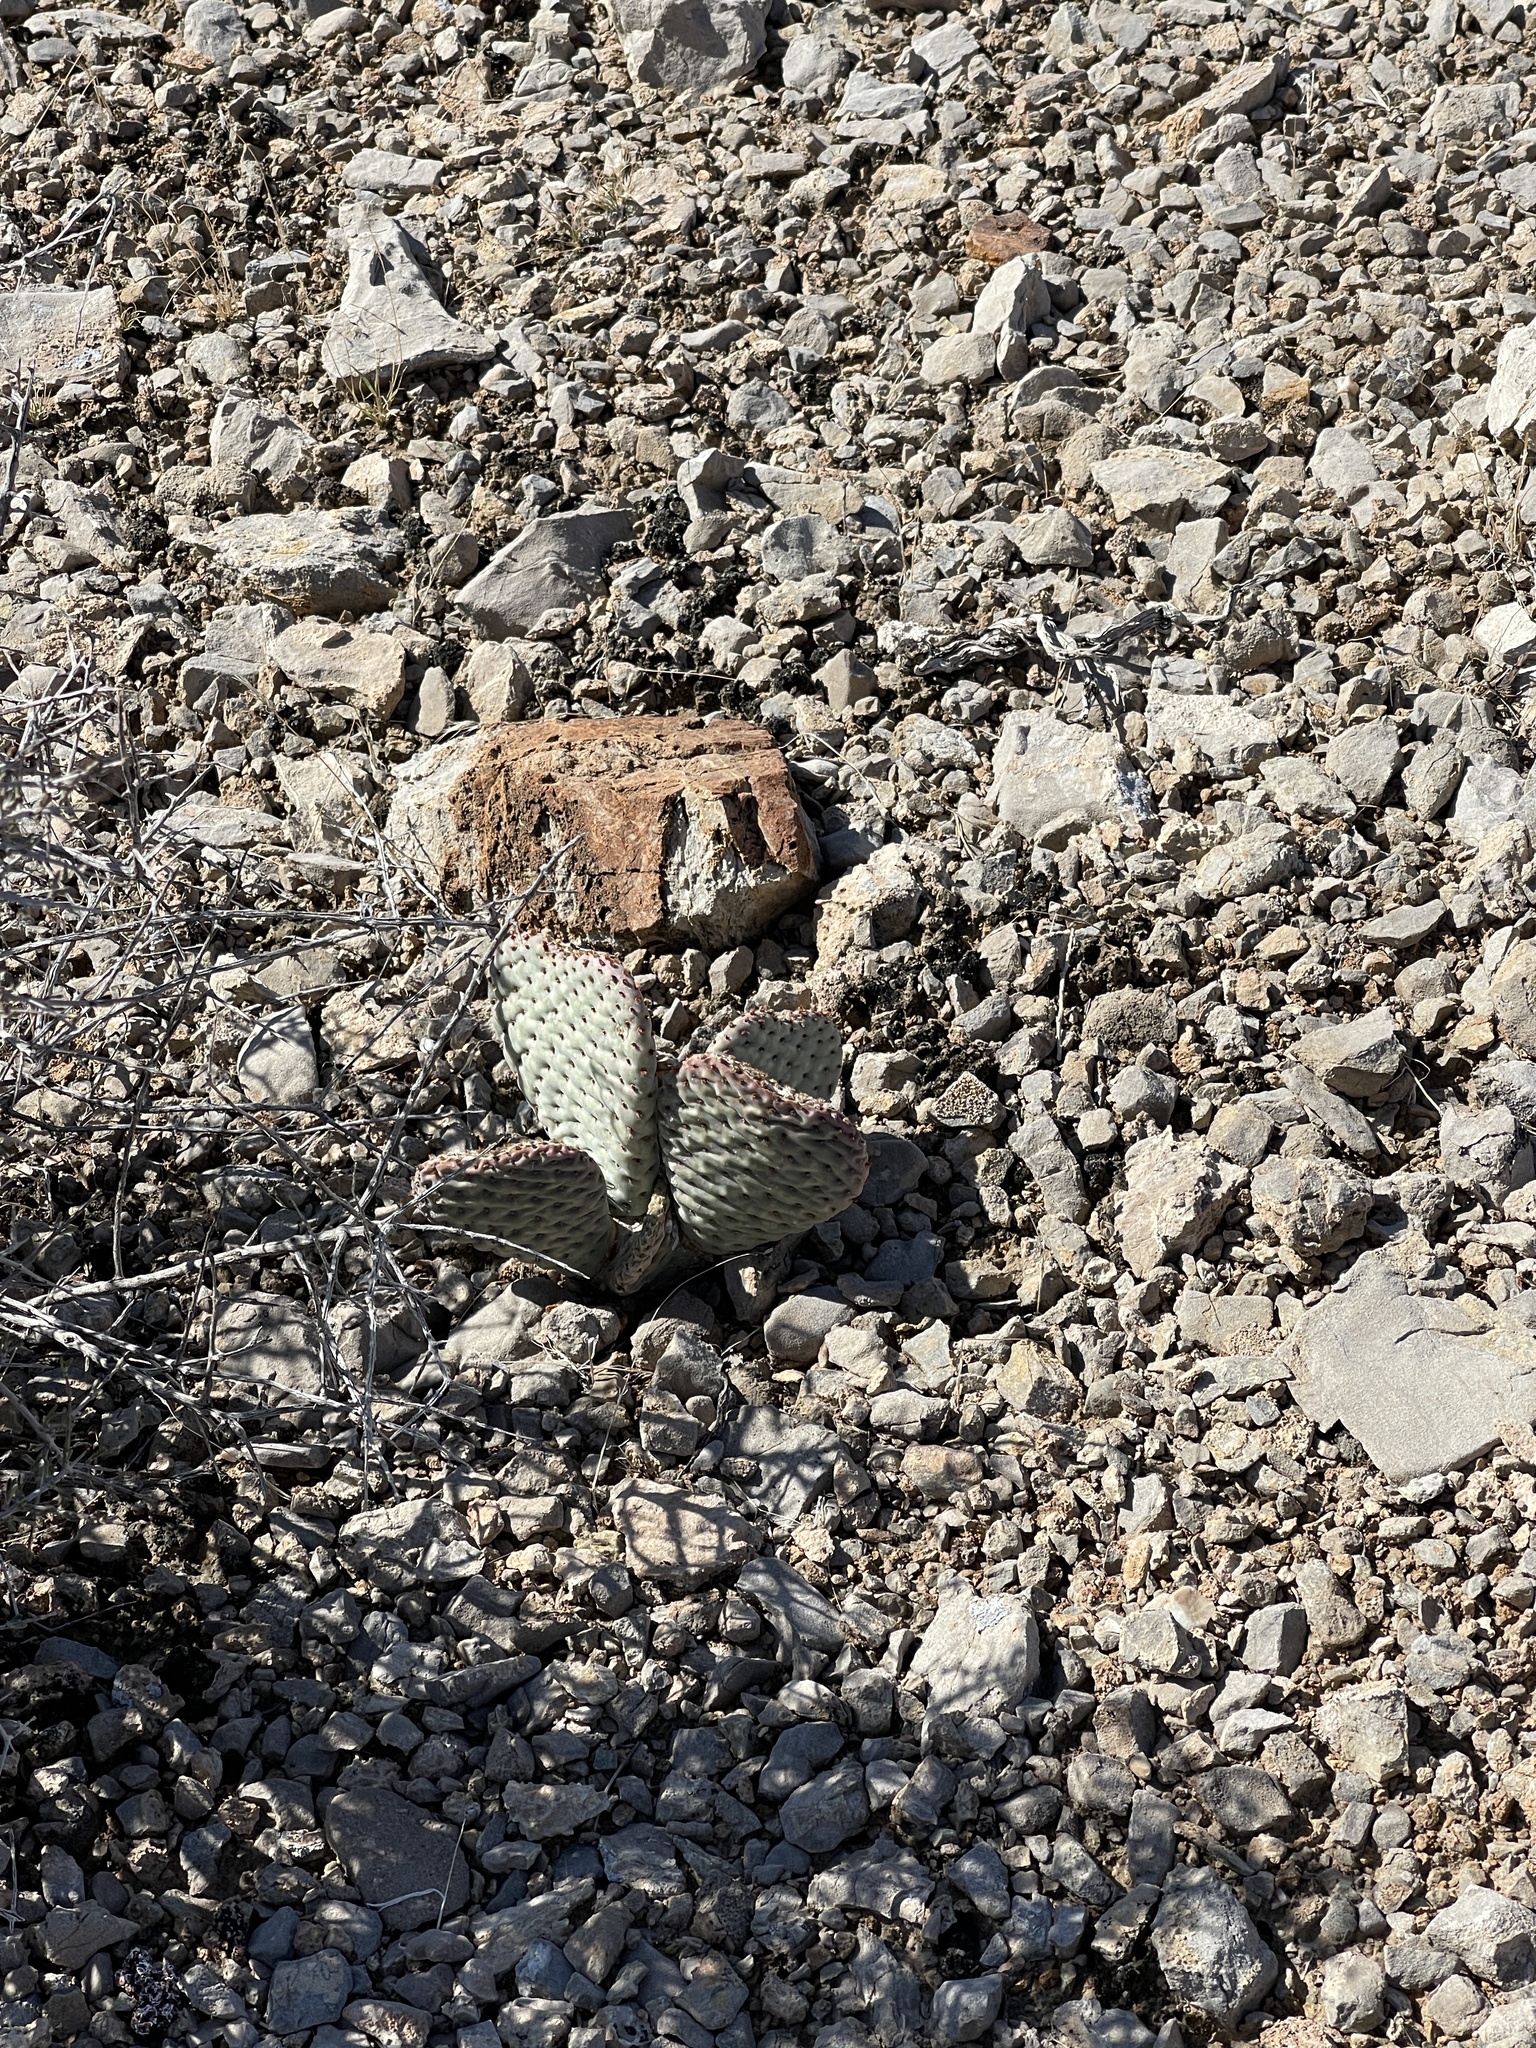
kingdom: Plantae
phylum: Tracheophyta
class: Magnoliopsida
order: Caryophyllales
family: Cactaceae
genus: Opuntia
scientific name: Opuntia basilaris
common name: Beavertail prickly-pear
